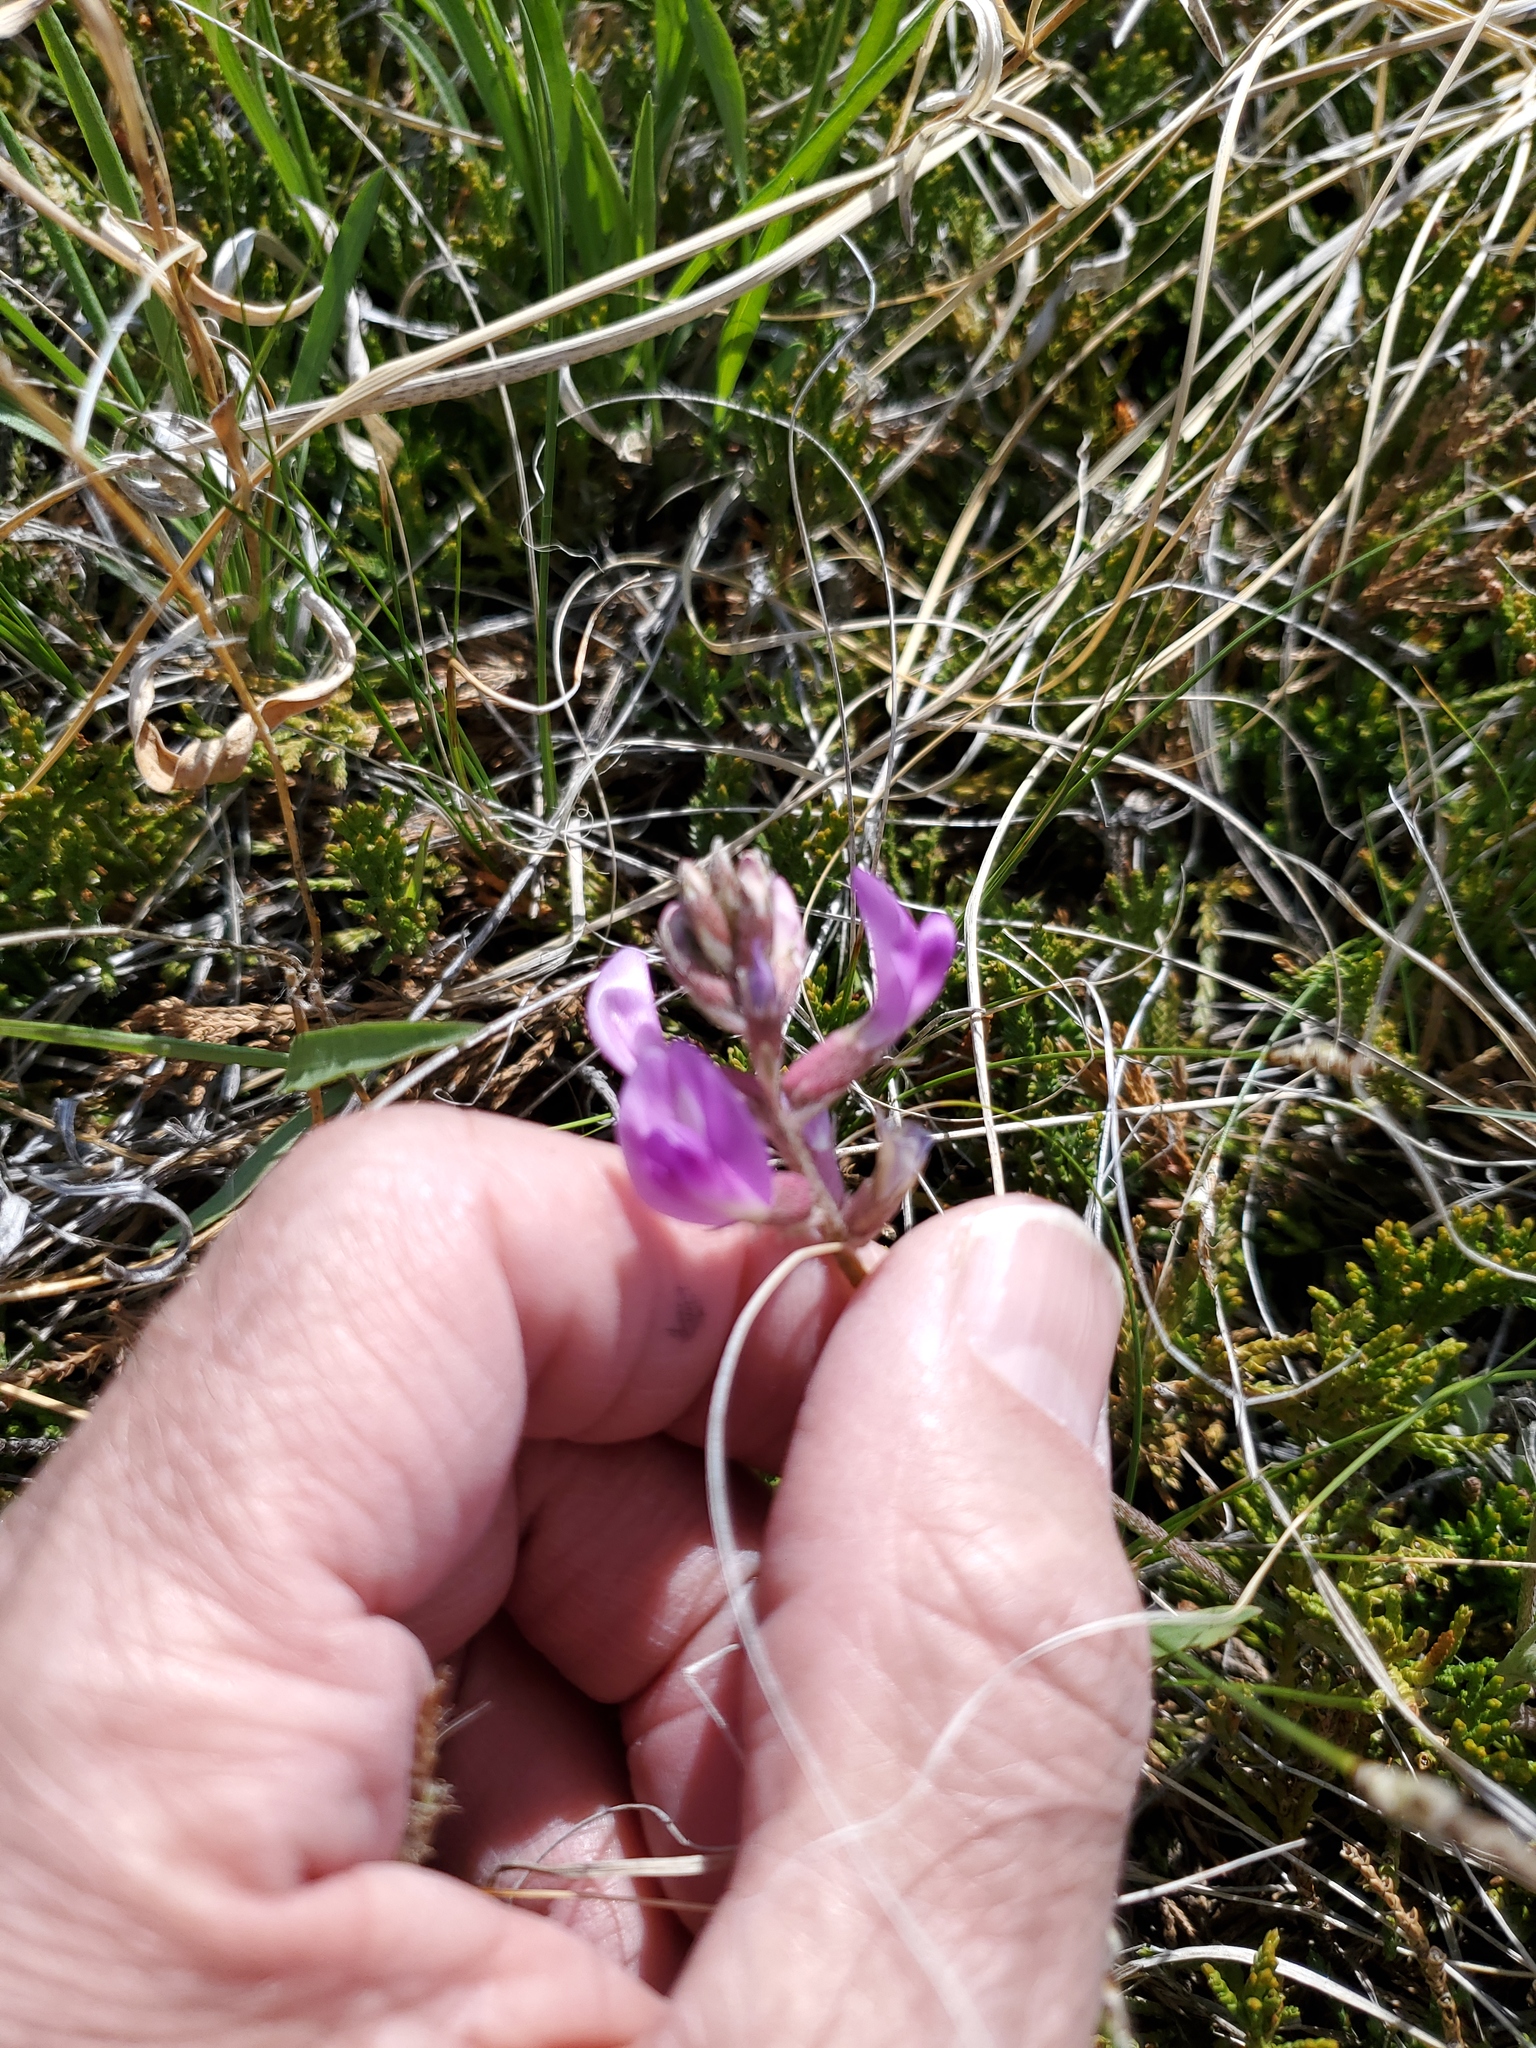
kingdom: Plantae
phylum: Tracheophyta
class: Magnoliopsida
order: Fabales
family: Fabaceae
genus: Astragalus
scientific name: Astragalus missouriensis
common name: Missouri milk-vetch
